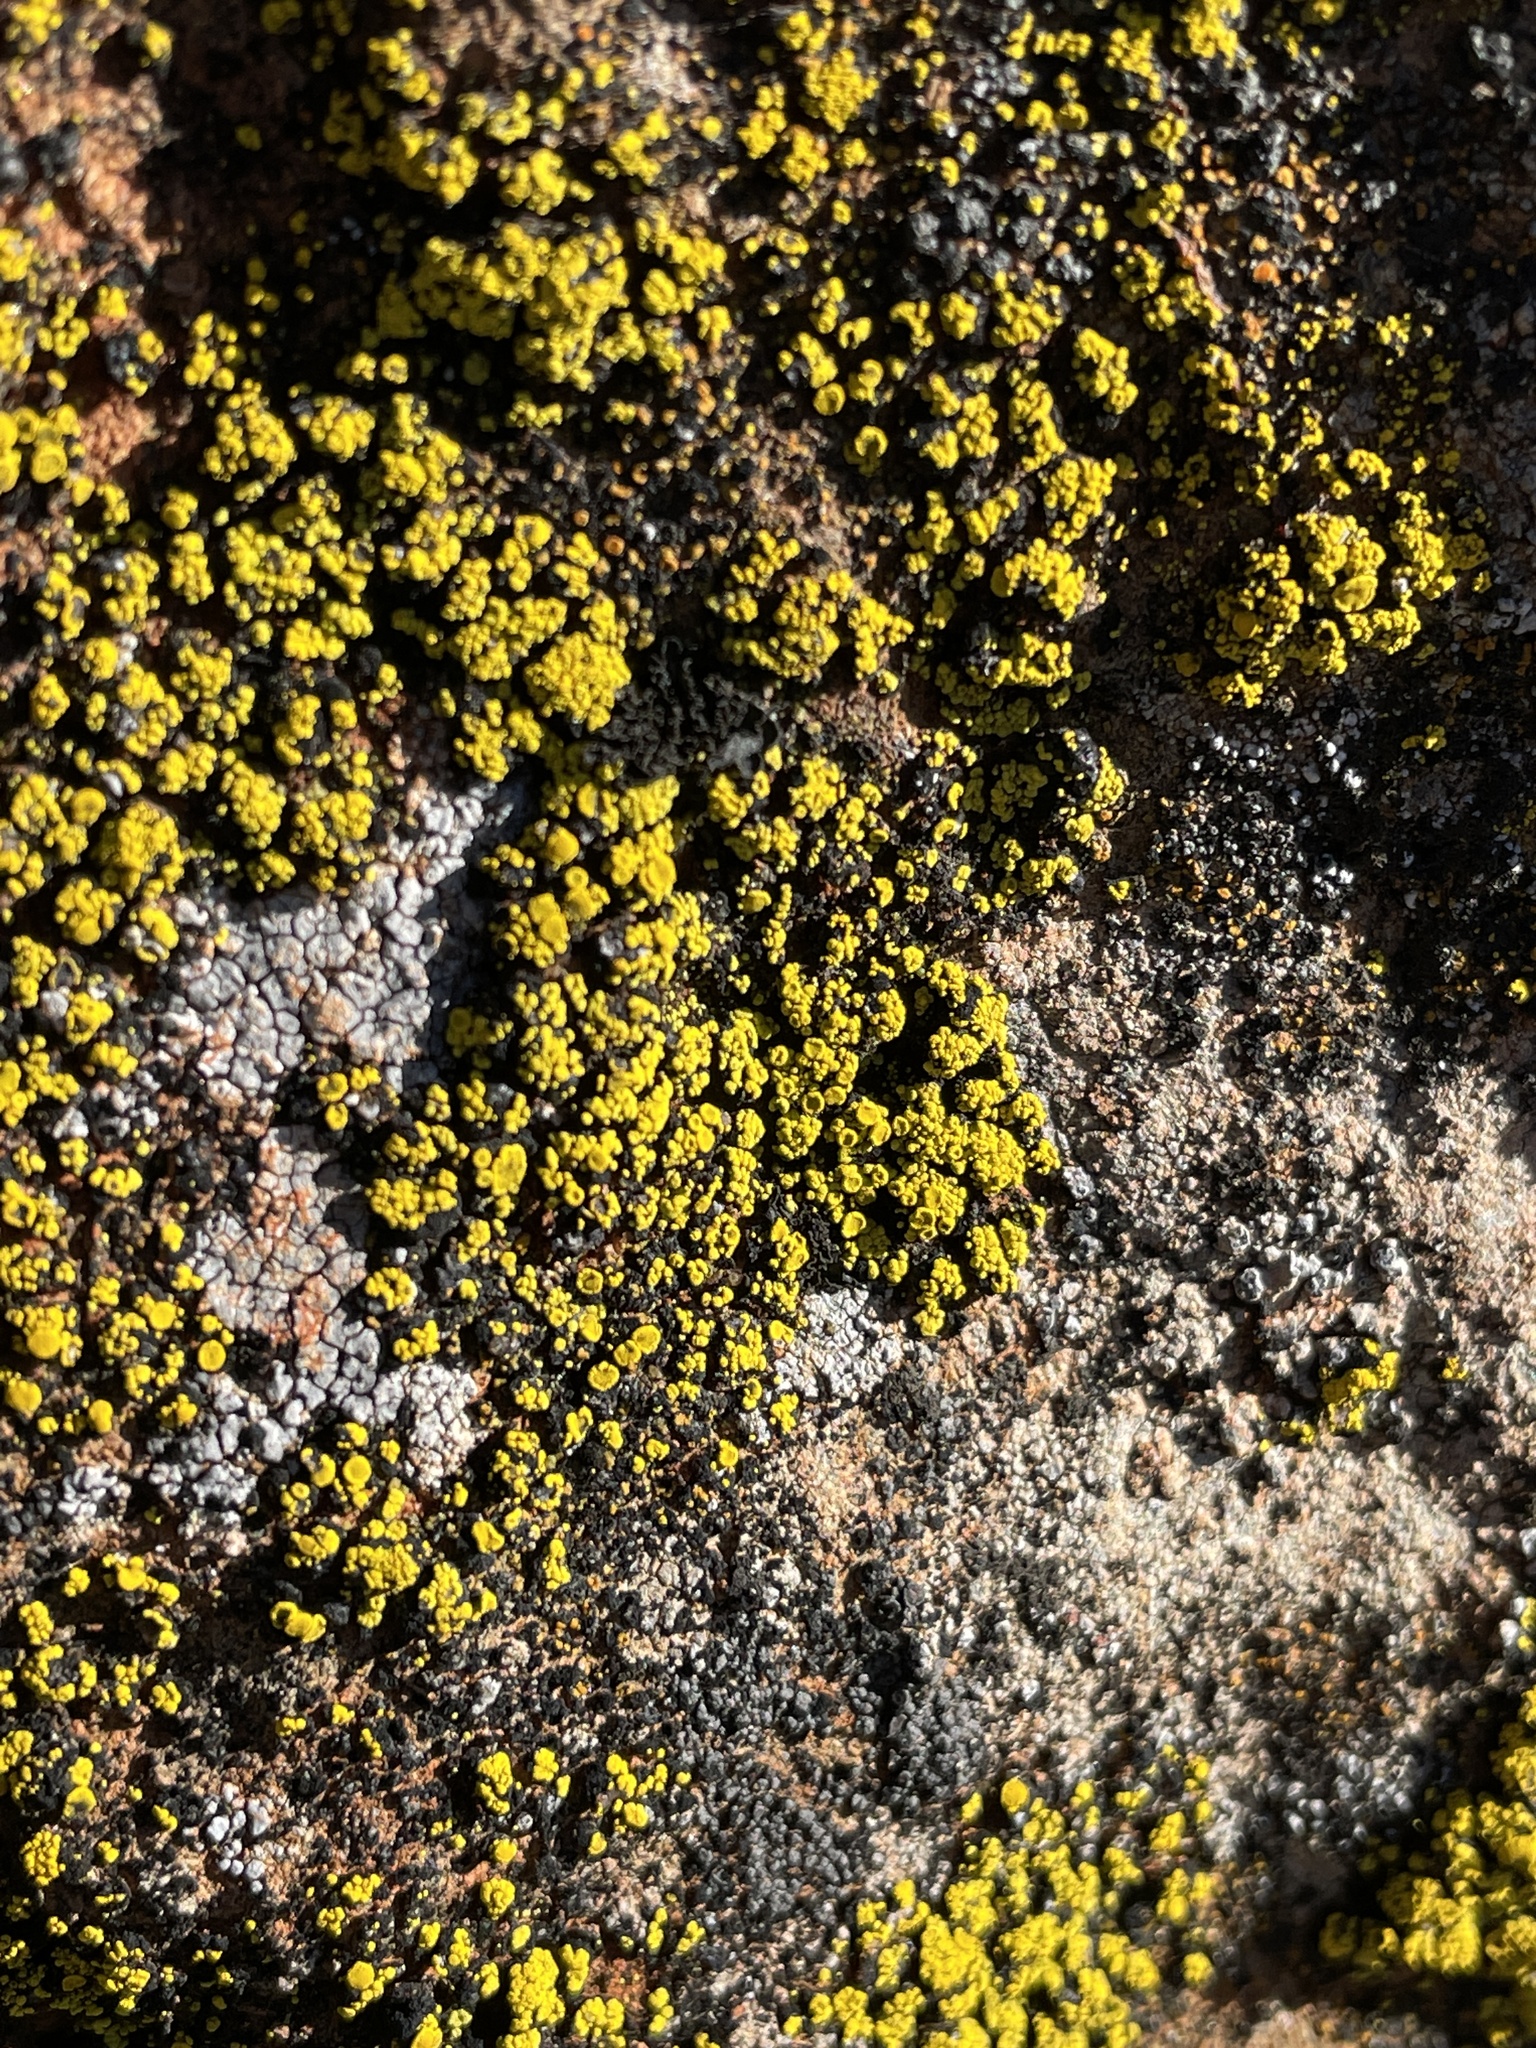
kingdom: Fungi
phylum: Ascomycota
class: Candelariomycetes
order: Candelariales
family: Candelariaceae
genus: Candelariella
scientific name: Candelariella vitellina
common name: Common goldspeck
